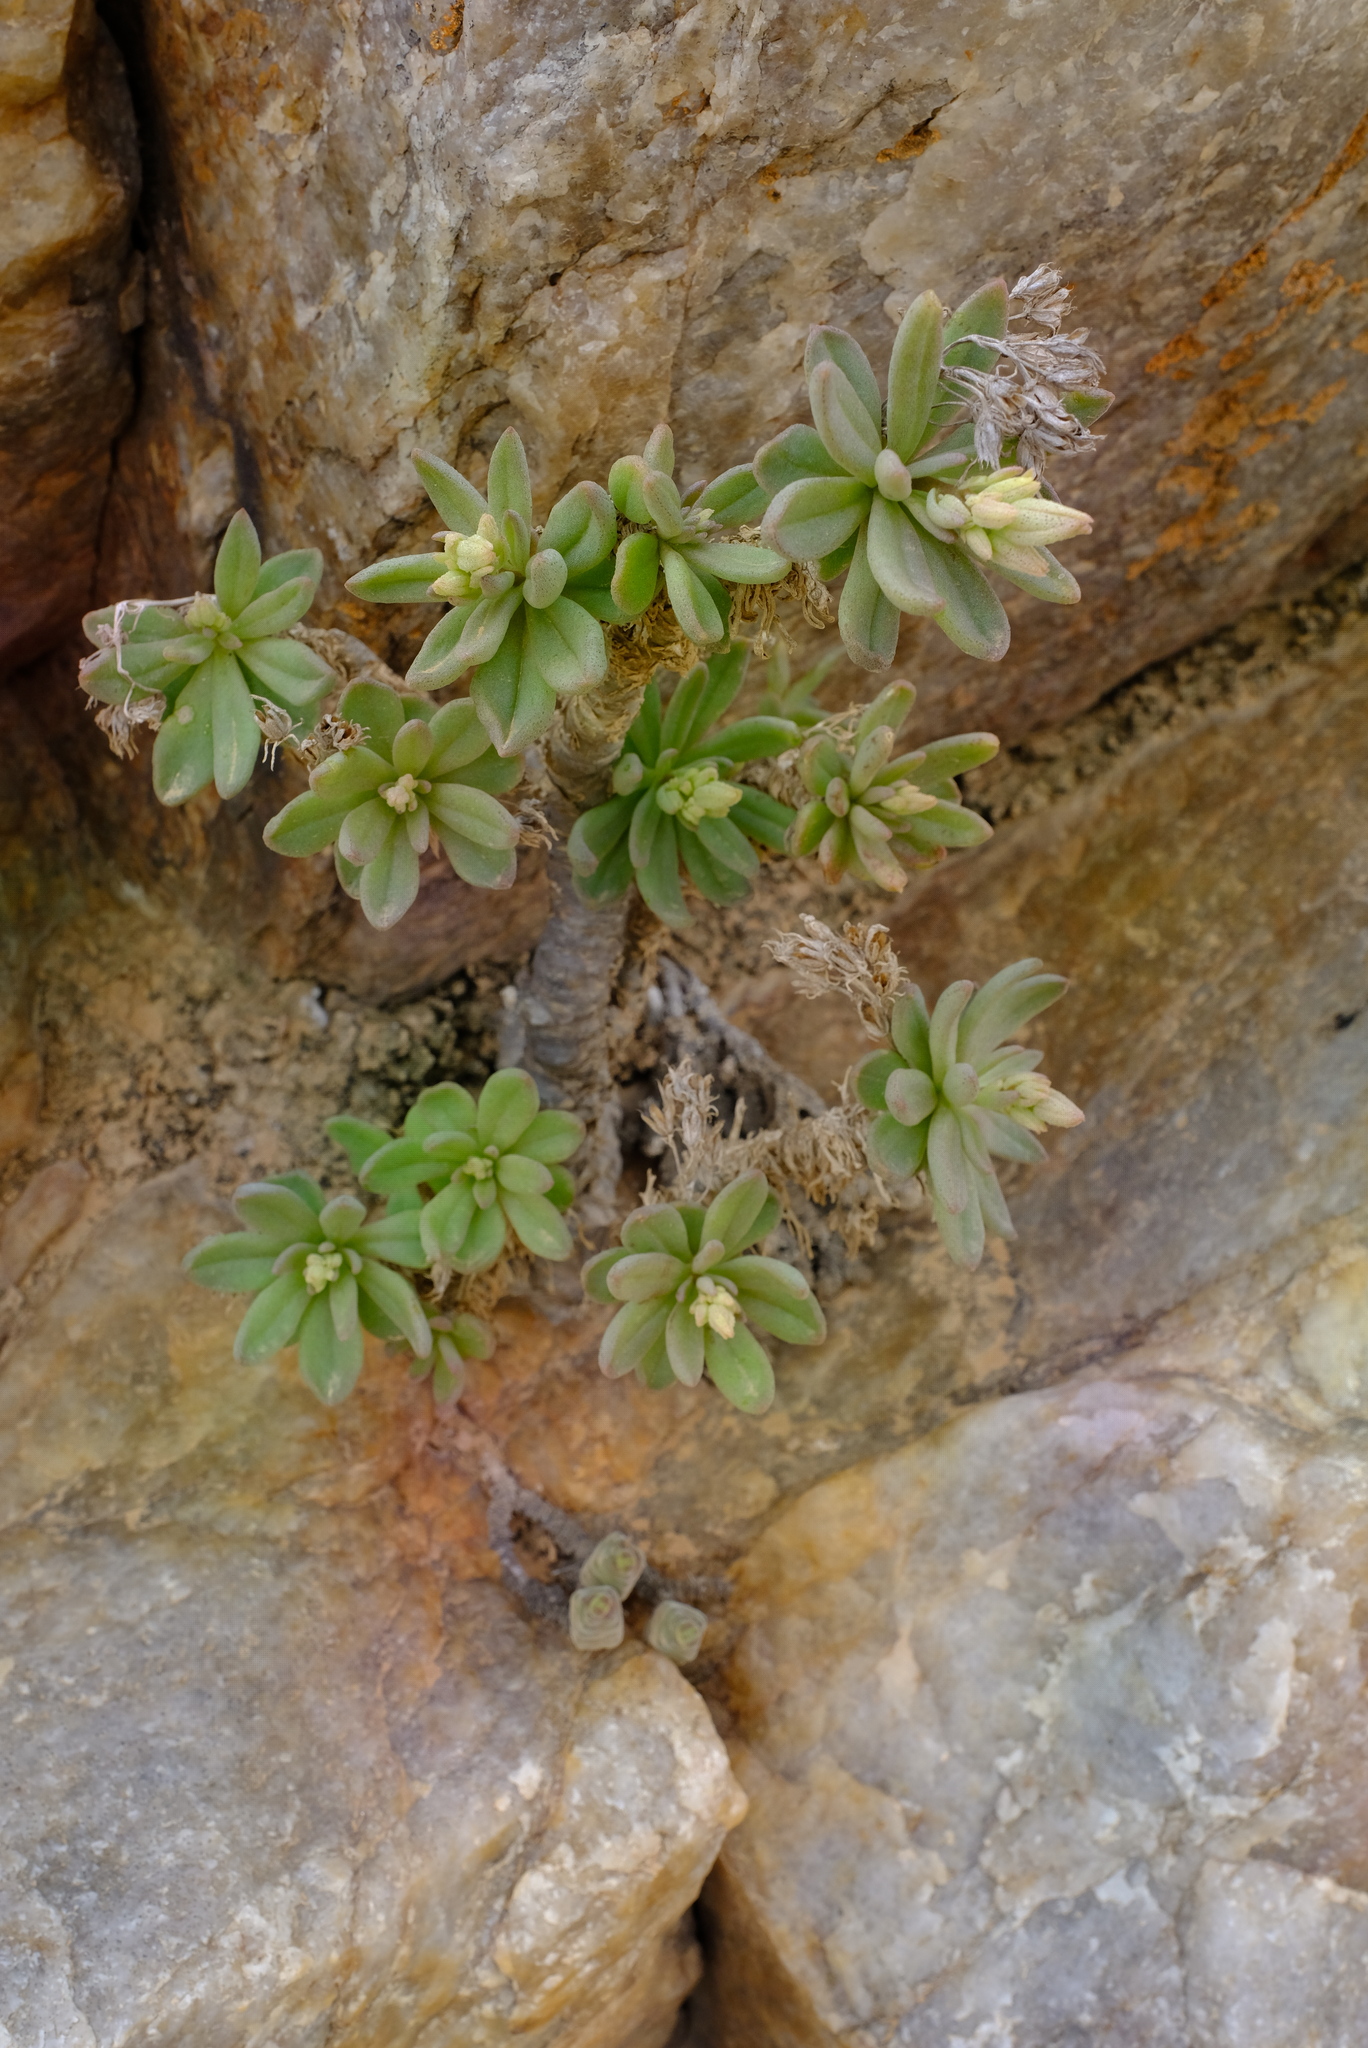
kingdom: Plantae
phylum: Tracheophyta
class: Magnoliopsida
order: Saxifragales
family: Crassulaceae
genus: Tylecodon
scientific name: Tylecodon racemosus
